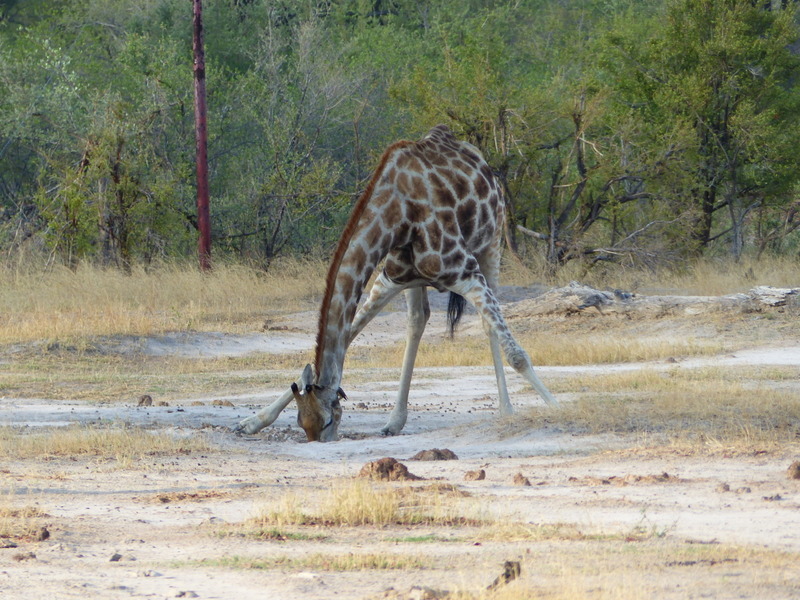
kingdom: Animalia
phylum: Chordata
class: Mammalia
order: Artiodactyla
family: Giraffidae
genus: Giraffa
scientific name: Giraffa giraffa
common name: Southern giraffe
